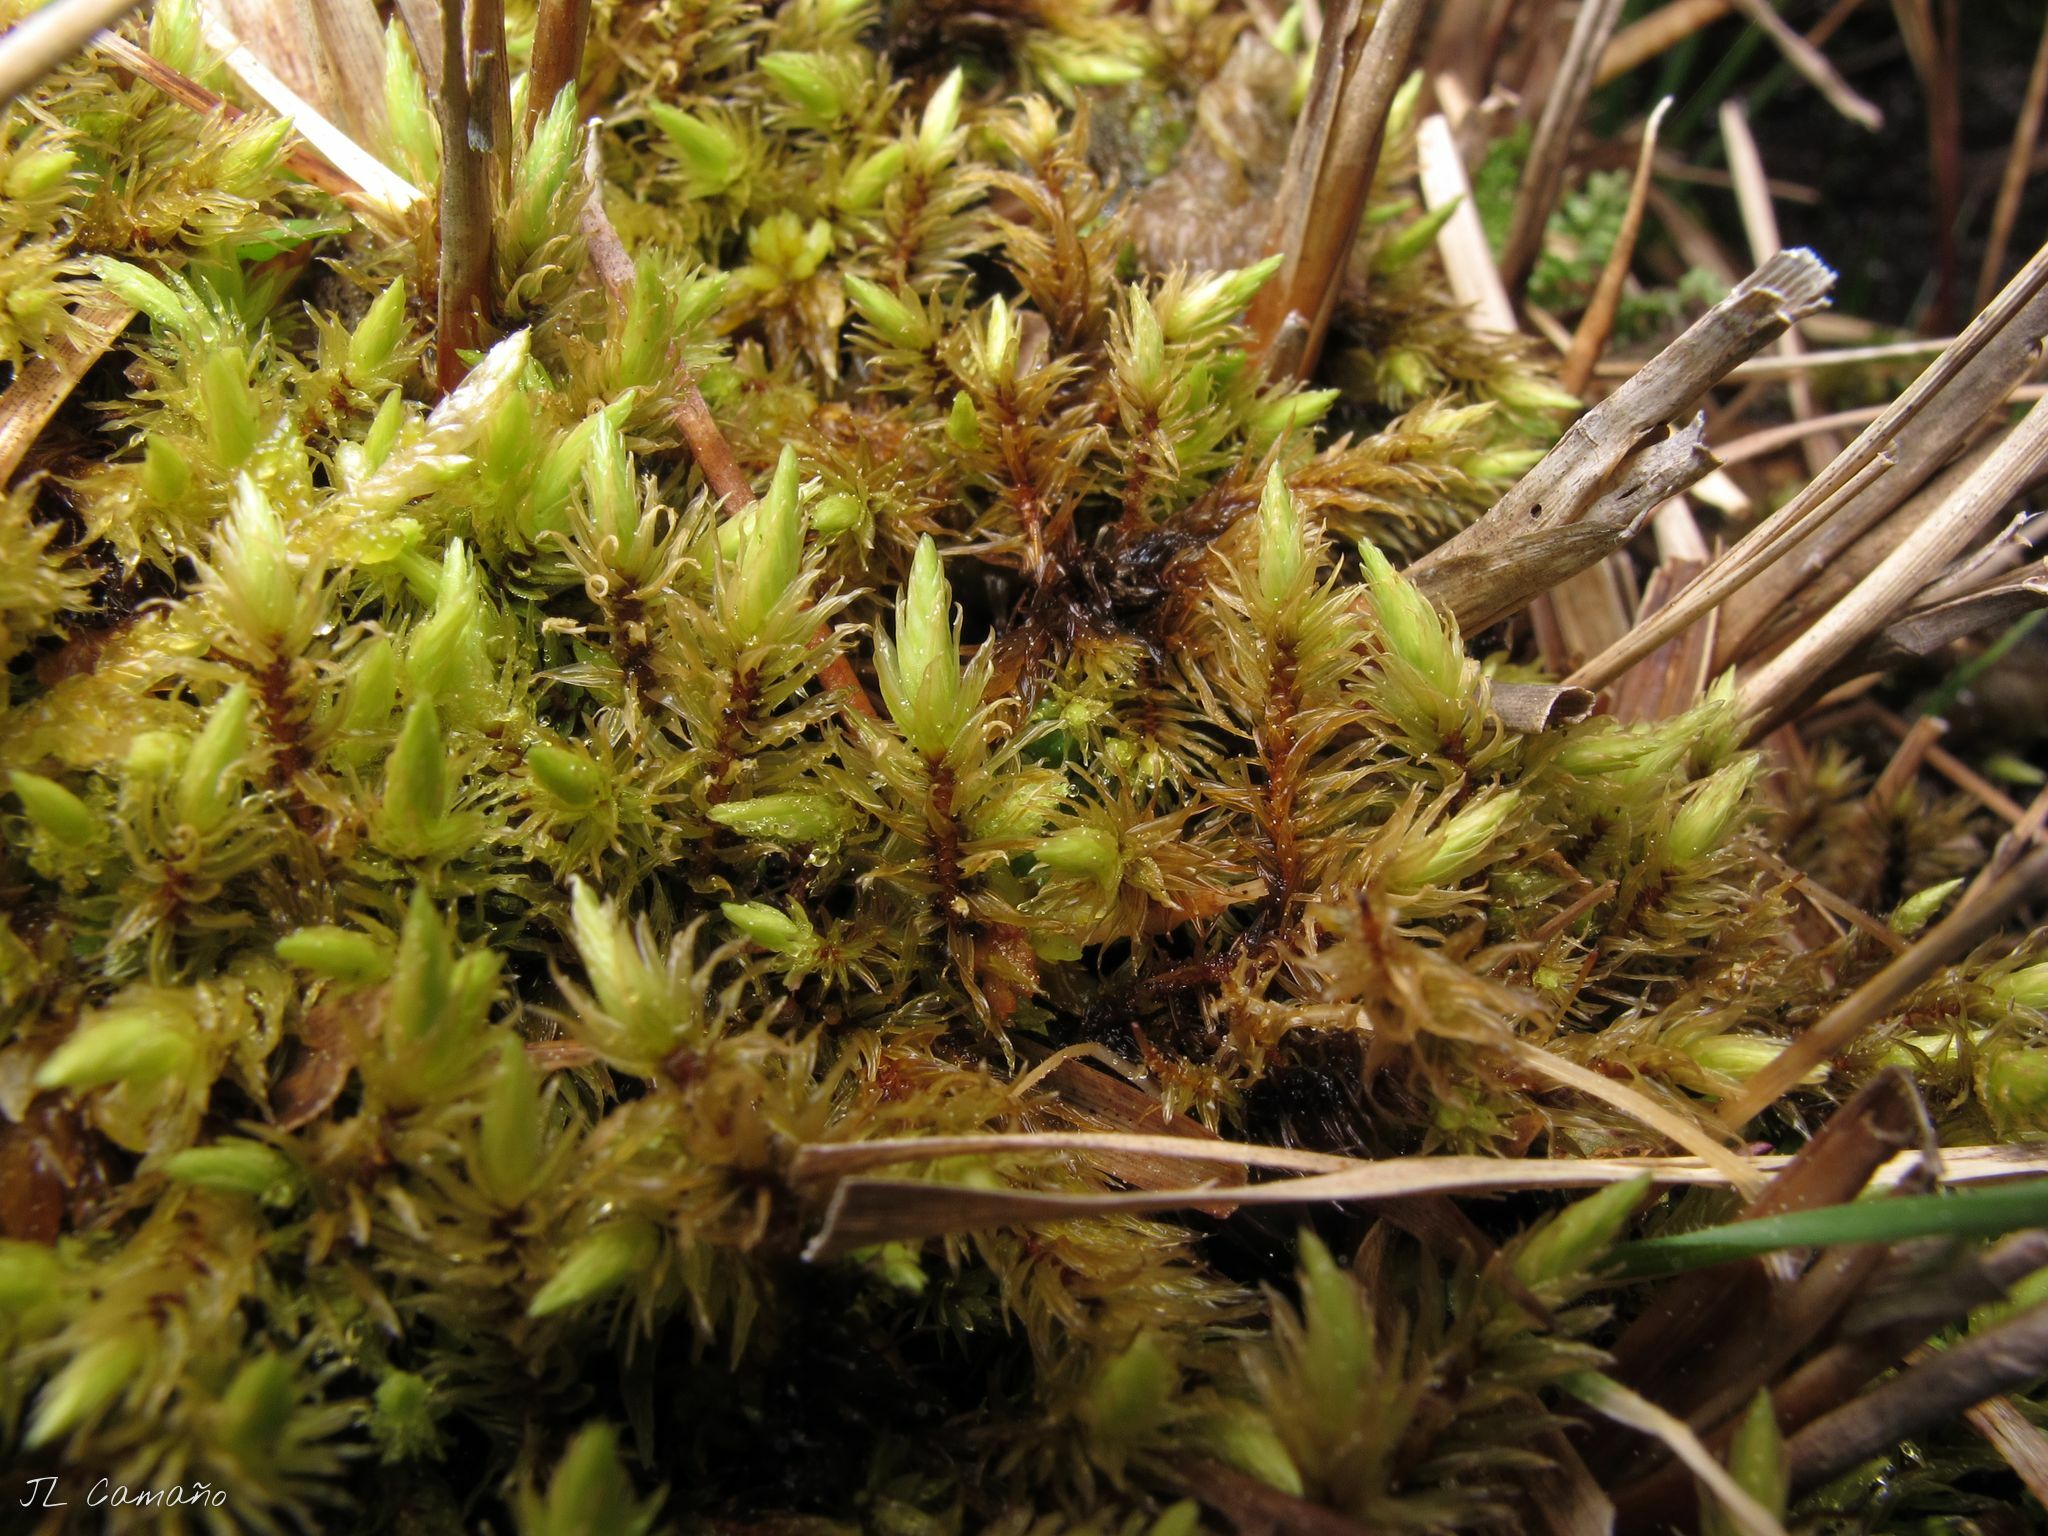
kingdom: Plantae
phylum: Bryophyta
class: Bryopsida
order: Aulacomniales
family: Aulacomniaceae
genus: Aulacomnium
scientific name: Aulacomnium palustre
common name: Bog groove-moss
